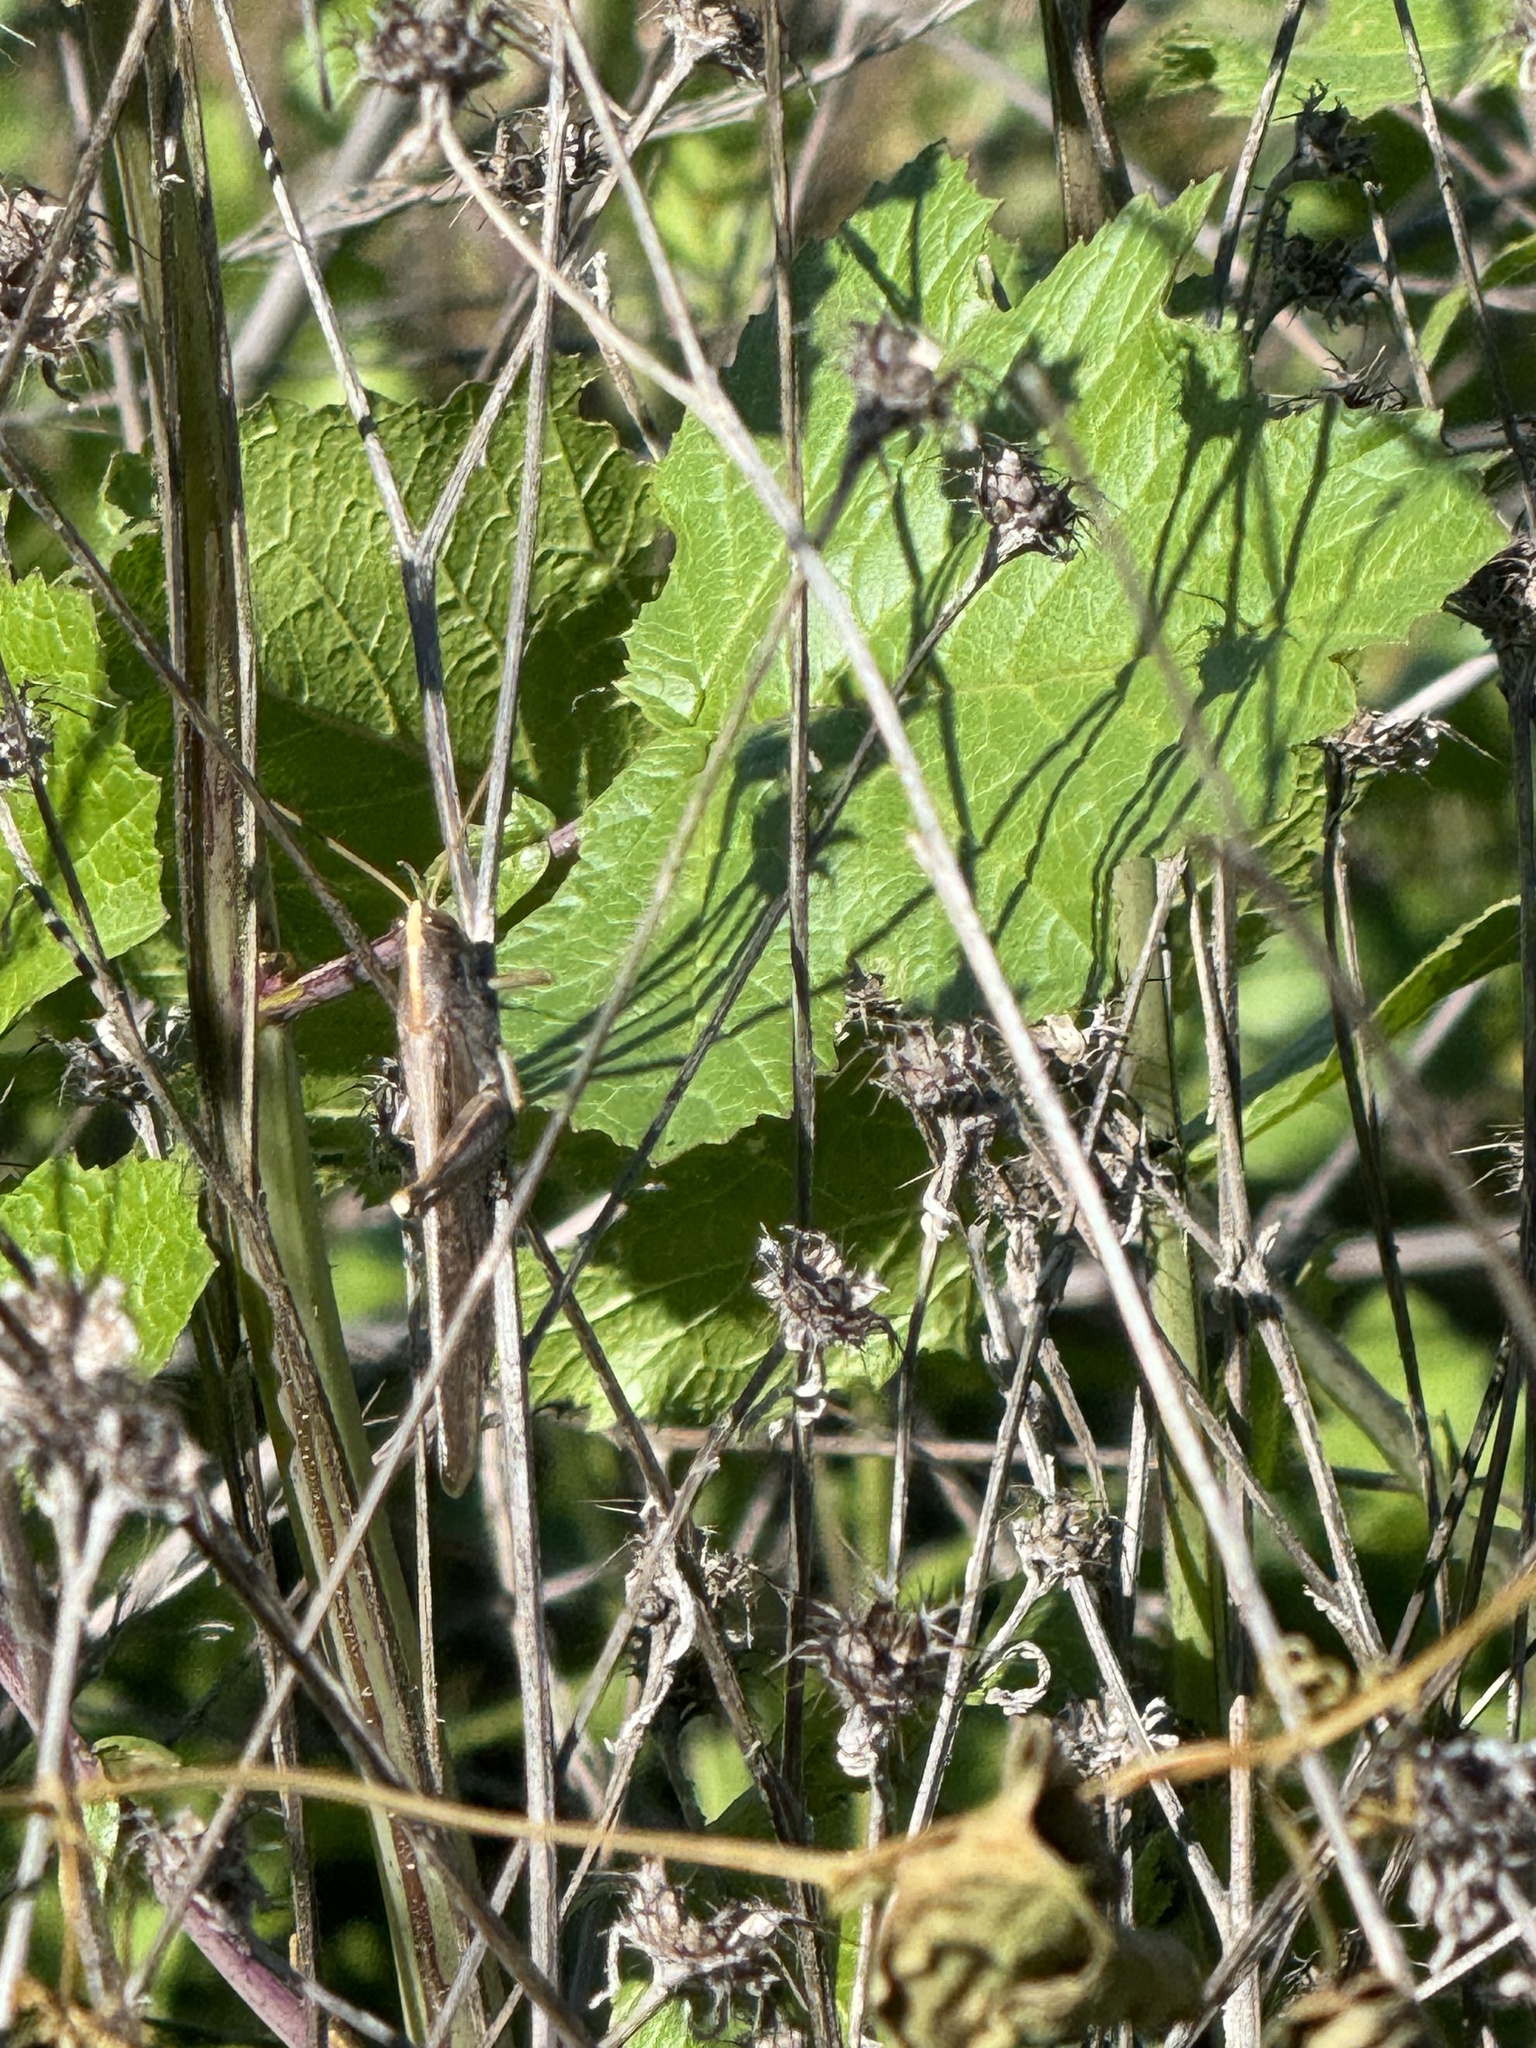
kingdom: Animalia
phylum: Arthropoda
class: Insecta
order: Orthoptera
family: Acrididae
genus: Schistocerca
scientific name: Schistocerca nitens
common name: Vagrant grasshopper
